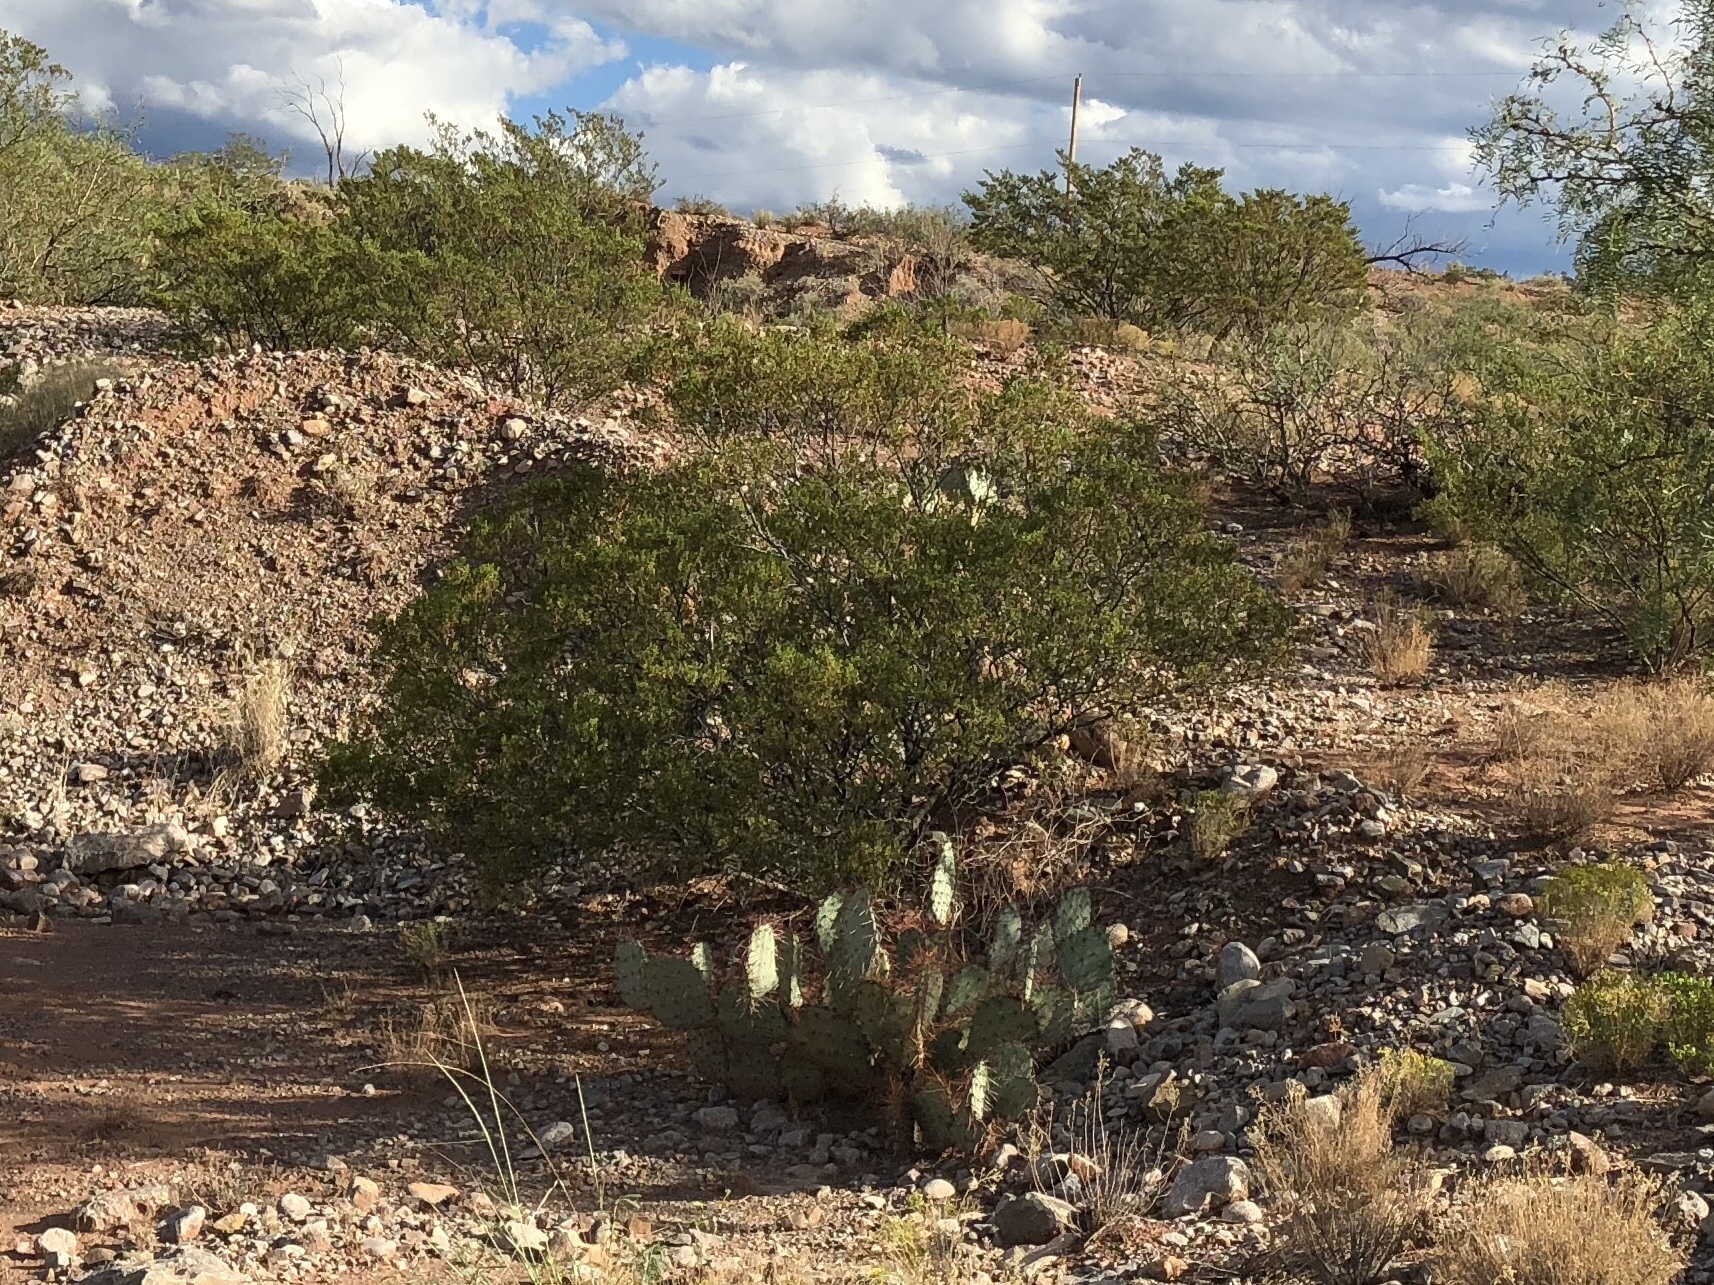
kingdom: Plantae
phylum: Tracheophyta
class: Magnoliopsida
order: Zygophyllales
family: Zygophyllaceae
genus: Larrea
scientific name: Larrea tridentata
